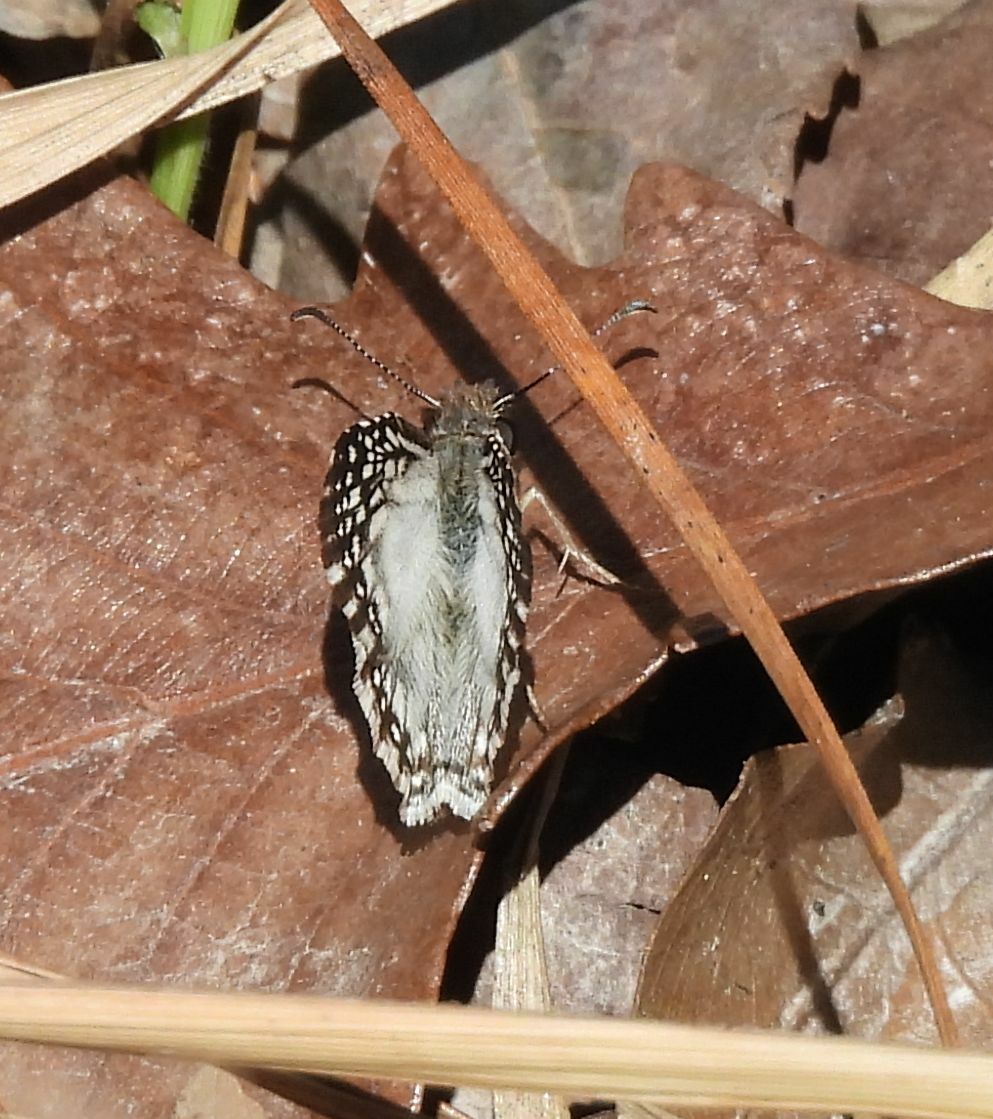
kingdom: Animalia
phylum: Arthropoda
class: Insecta
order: Lepidoptera
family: Hesperiidae
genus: Pyrgus
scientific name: Pyrgus oileus
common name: Tropical checkered-skipper
